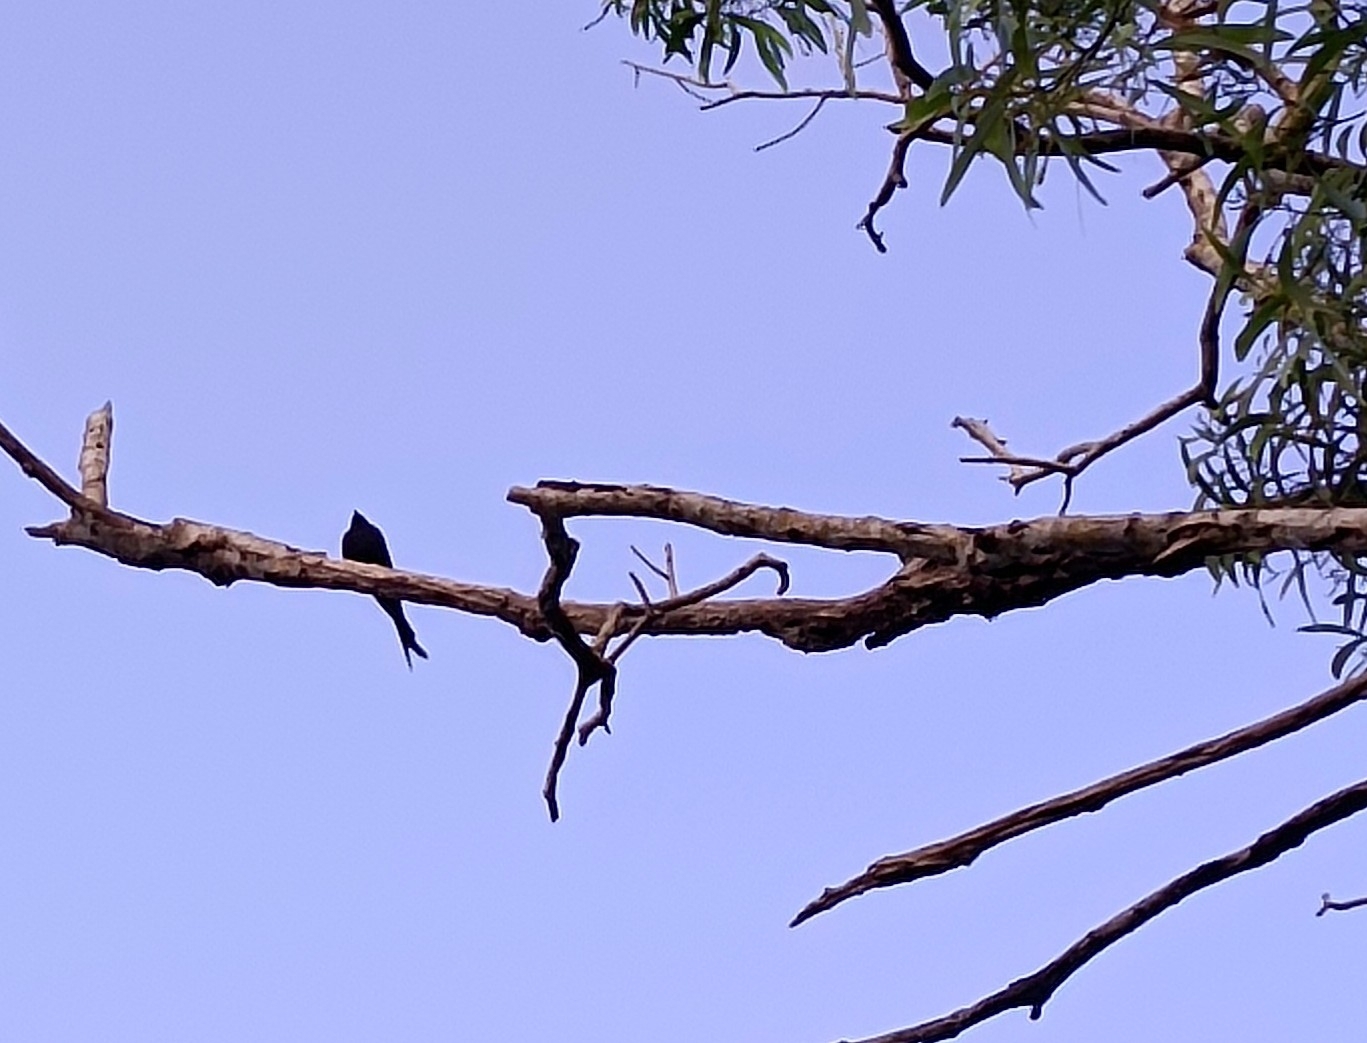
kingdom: Animalia
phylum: Chordata
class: Aves
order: Passeriformes
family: Dicruridae
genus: Dicrurus
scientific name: Dicrurus macrocercus
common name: Black drongo
